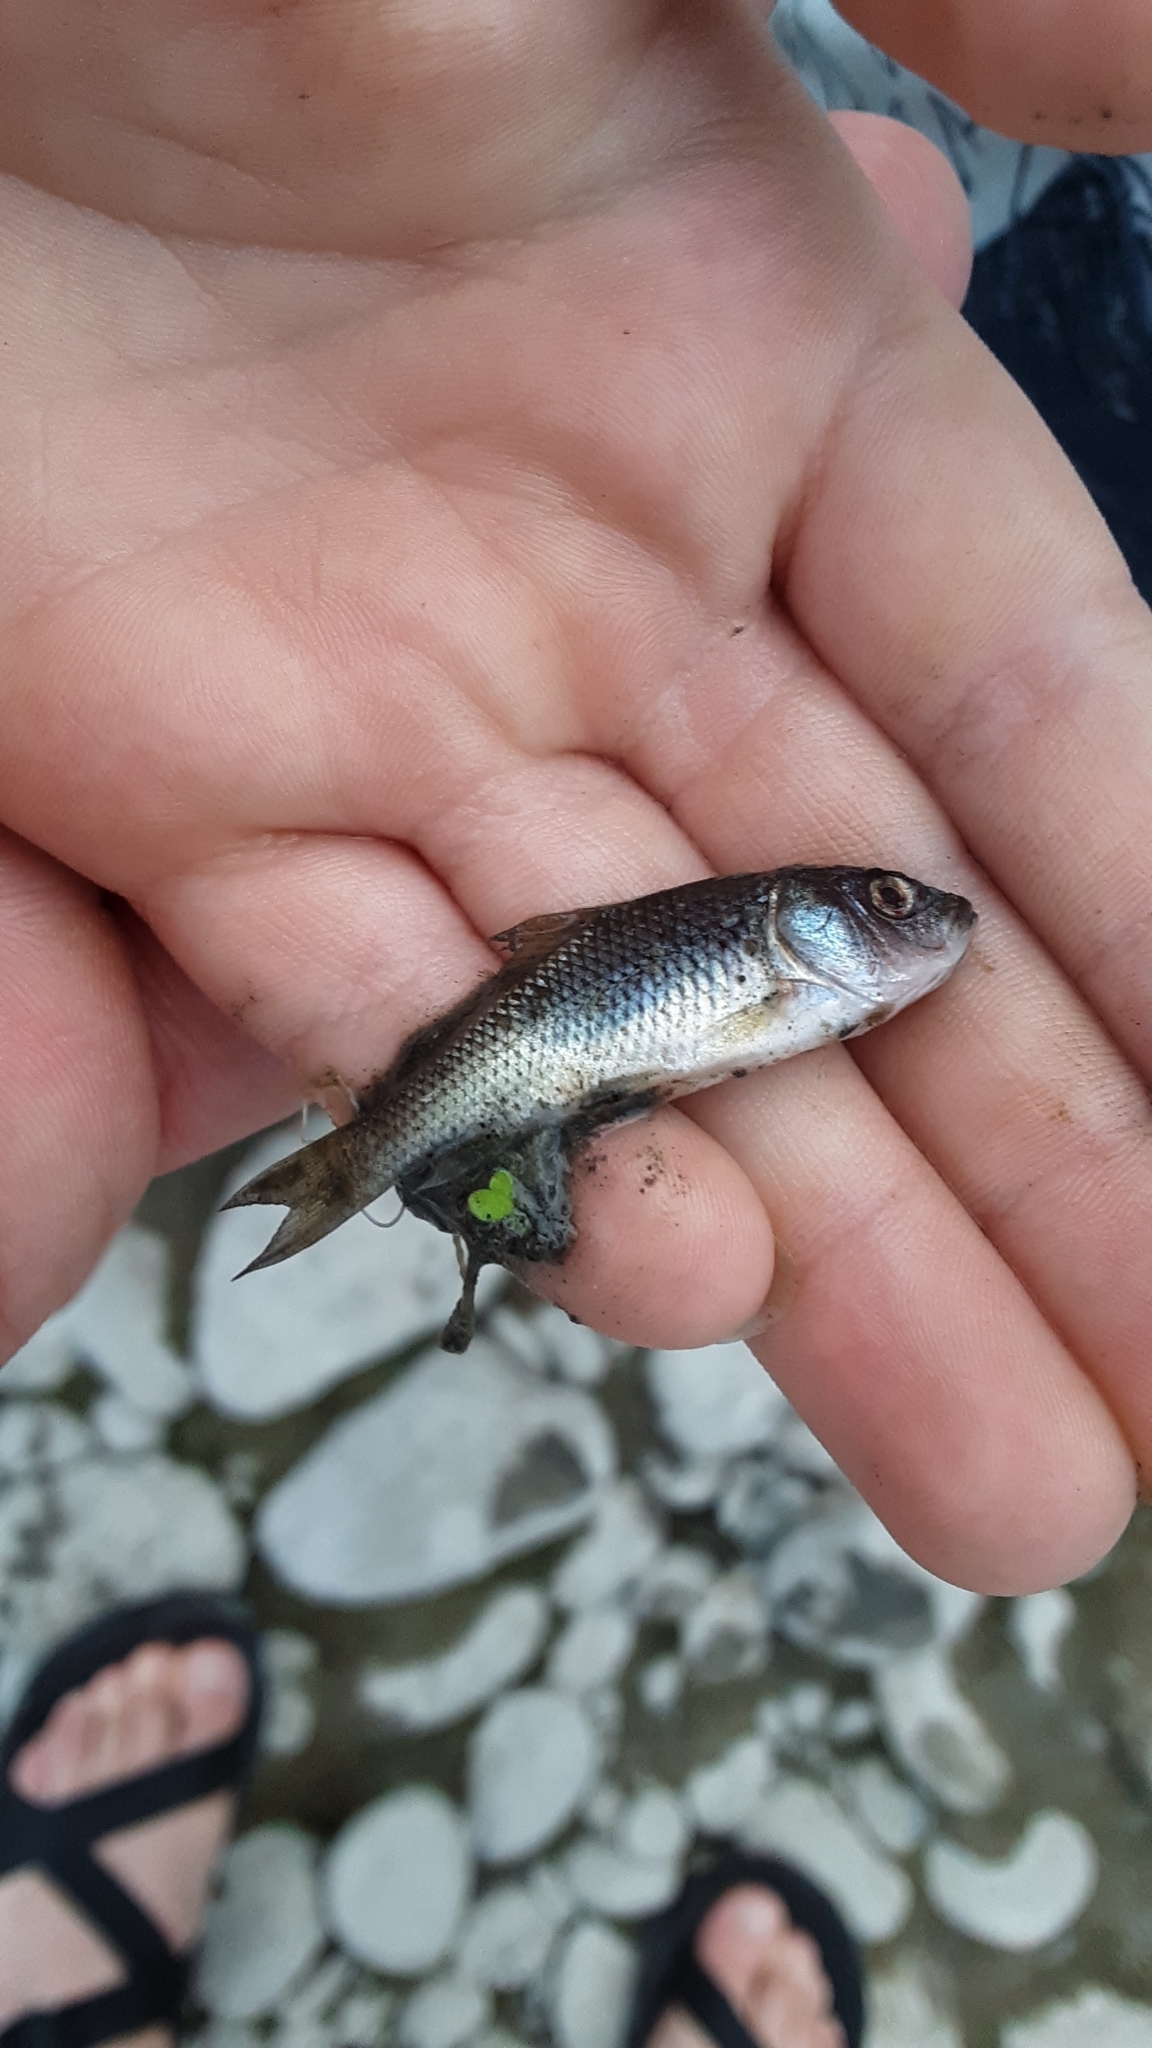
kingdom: Animalia
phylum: Chordata
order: Cypriniformes
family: Cyprinidae
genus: Cyprinus
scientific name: Cyprinus carpio
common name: Common carp
